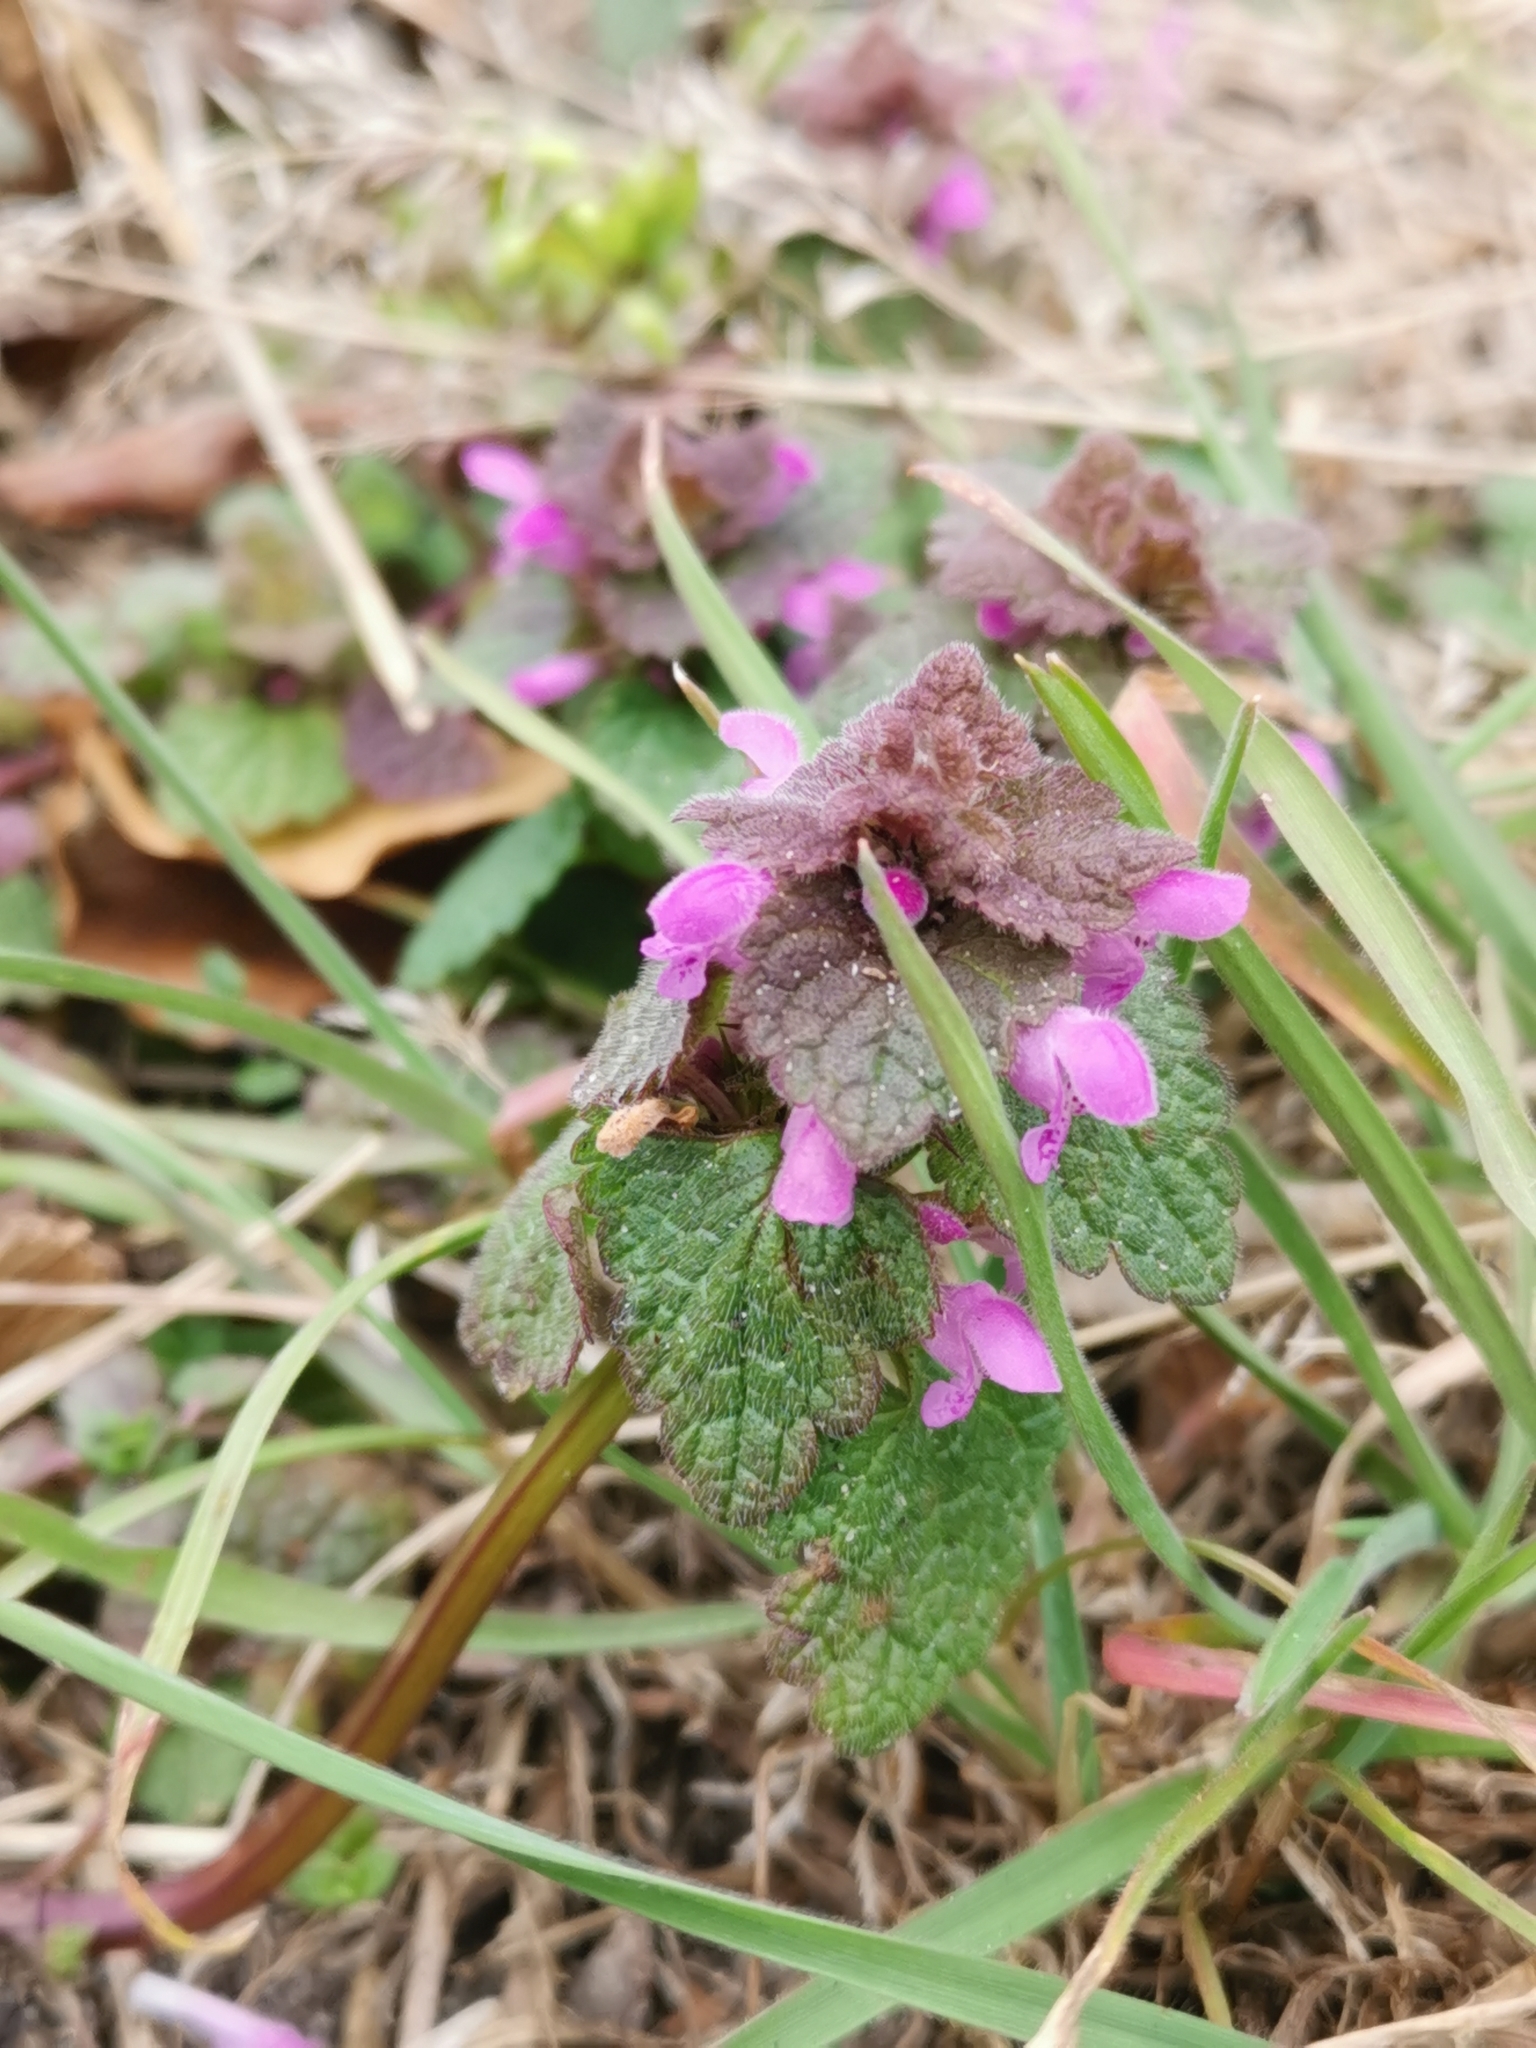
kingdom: Plantae
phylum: Tracheophyta
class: Magnoliopsida
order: Lamiales
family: Lamiaceae
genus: Lamium
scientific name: Lamium purpureum
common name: Red dead-nettle
